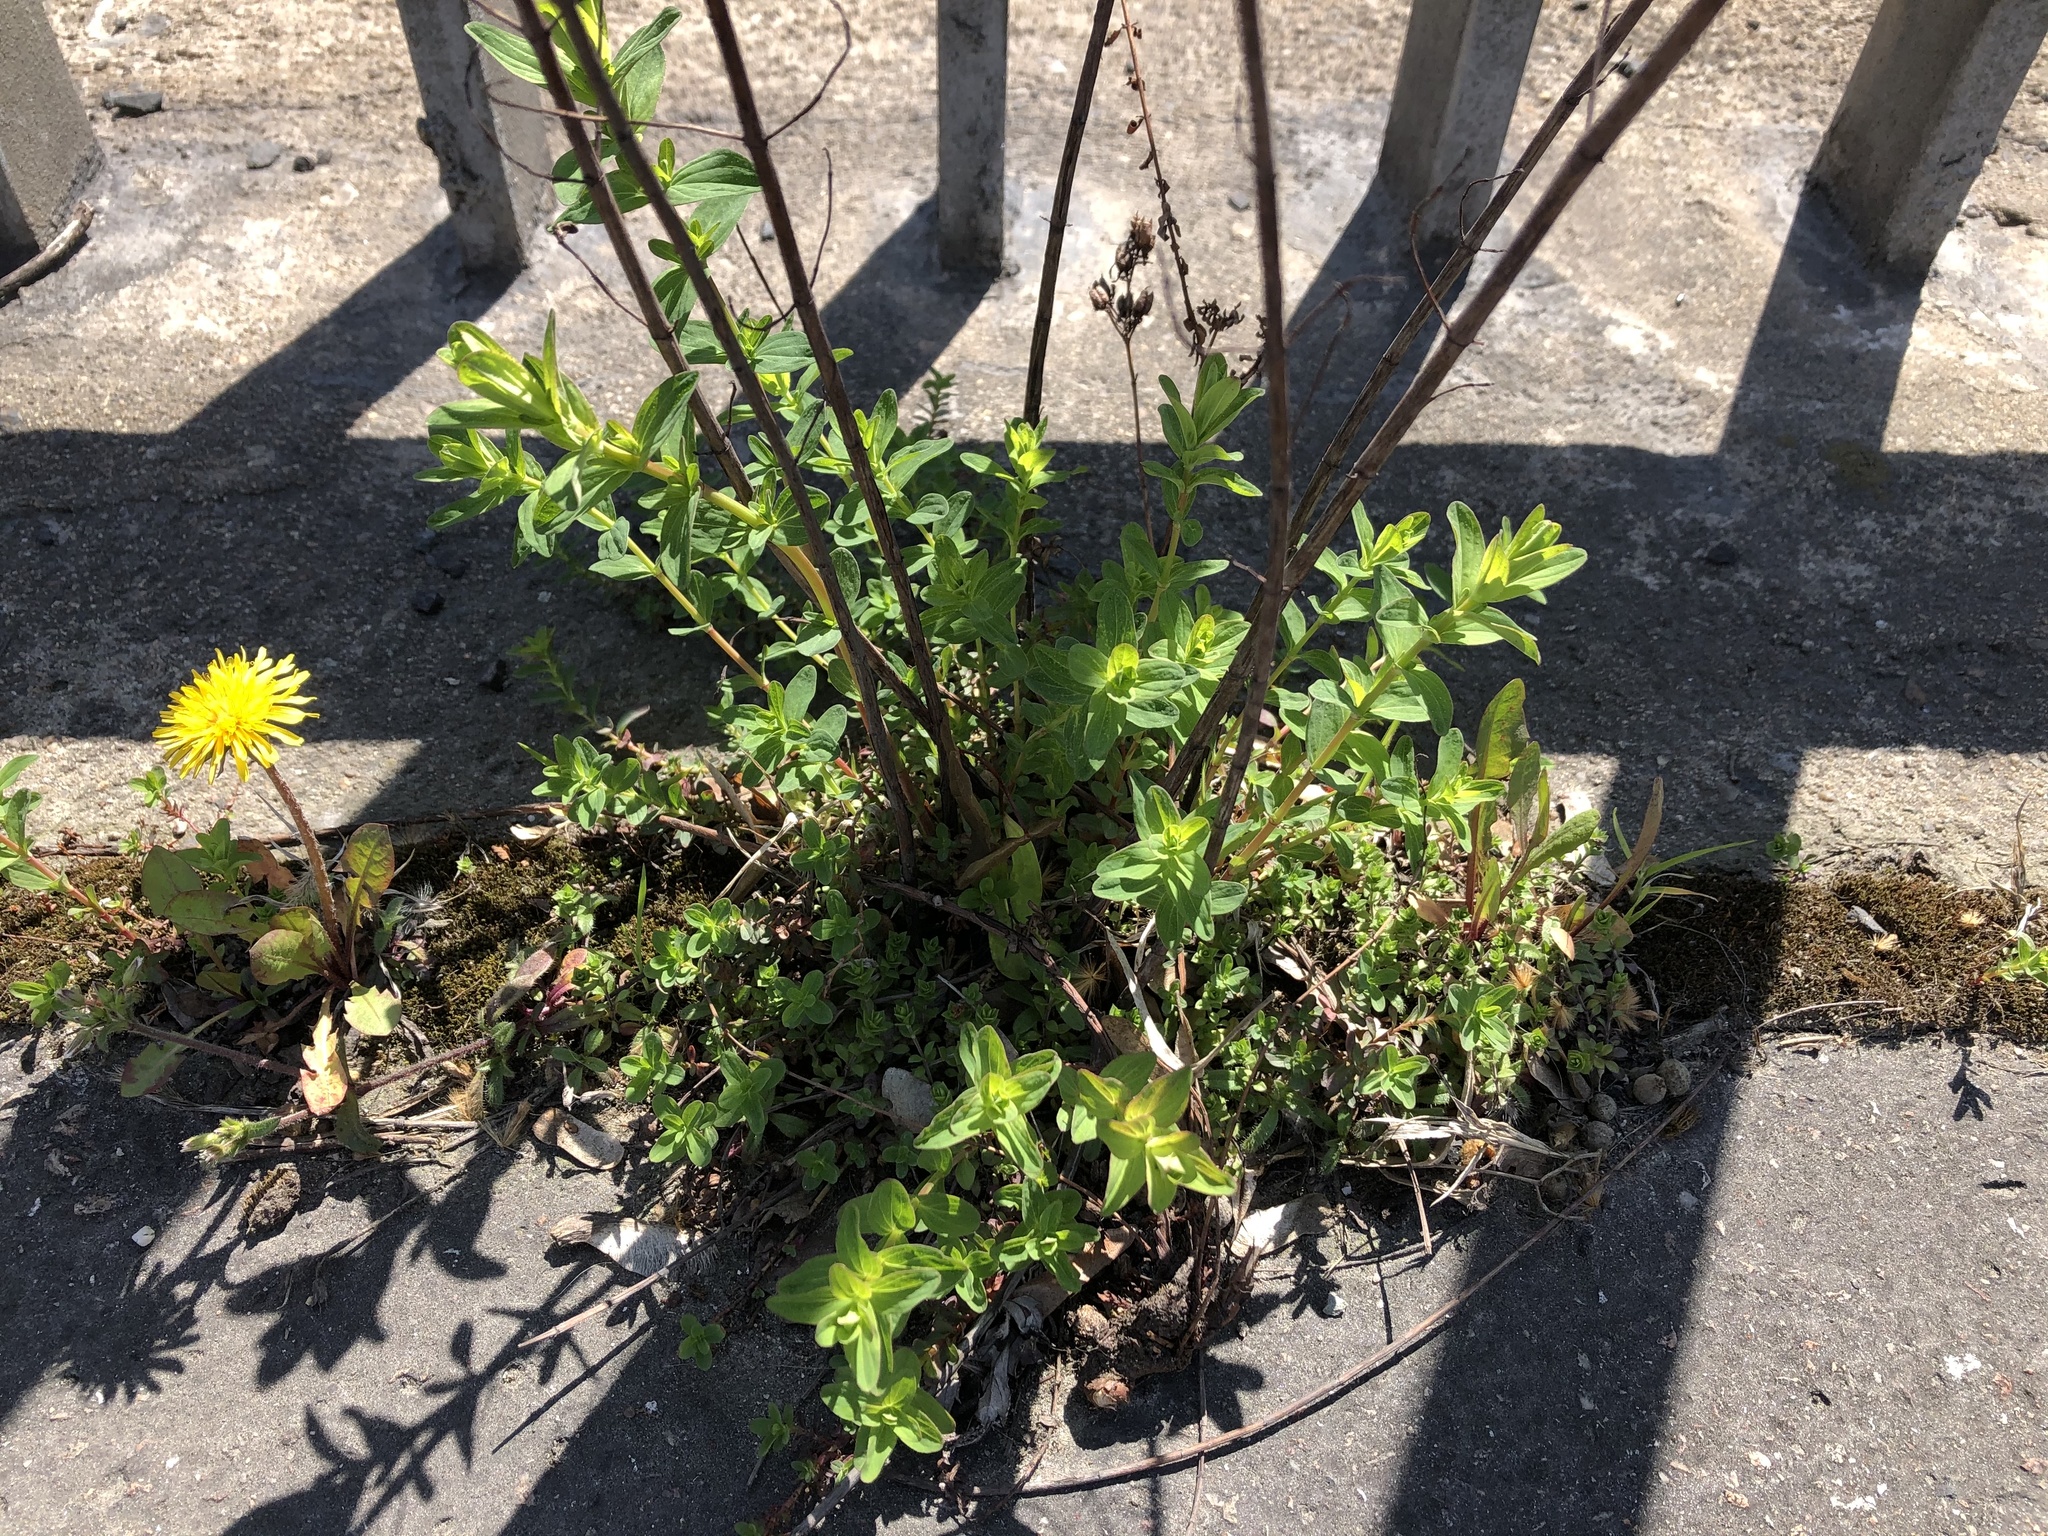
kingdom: Plantae
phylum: Tracheophyta
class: Magnoliopsida
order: Malpighiales
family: Hypericaceae
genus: Hypericum
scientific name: Hypericum perforatum
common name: Common st. johnswort
